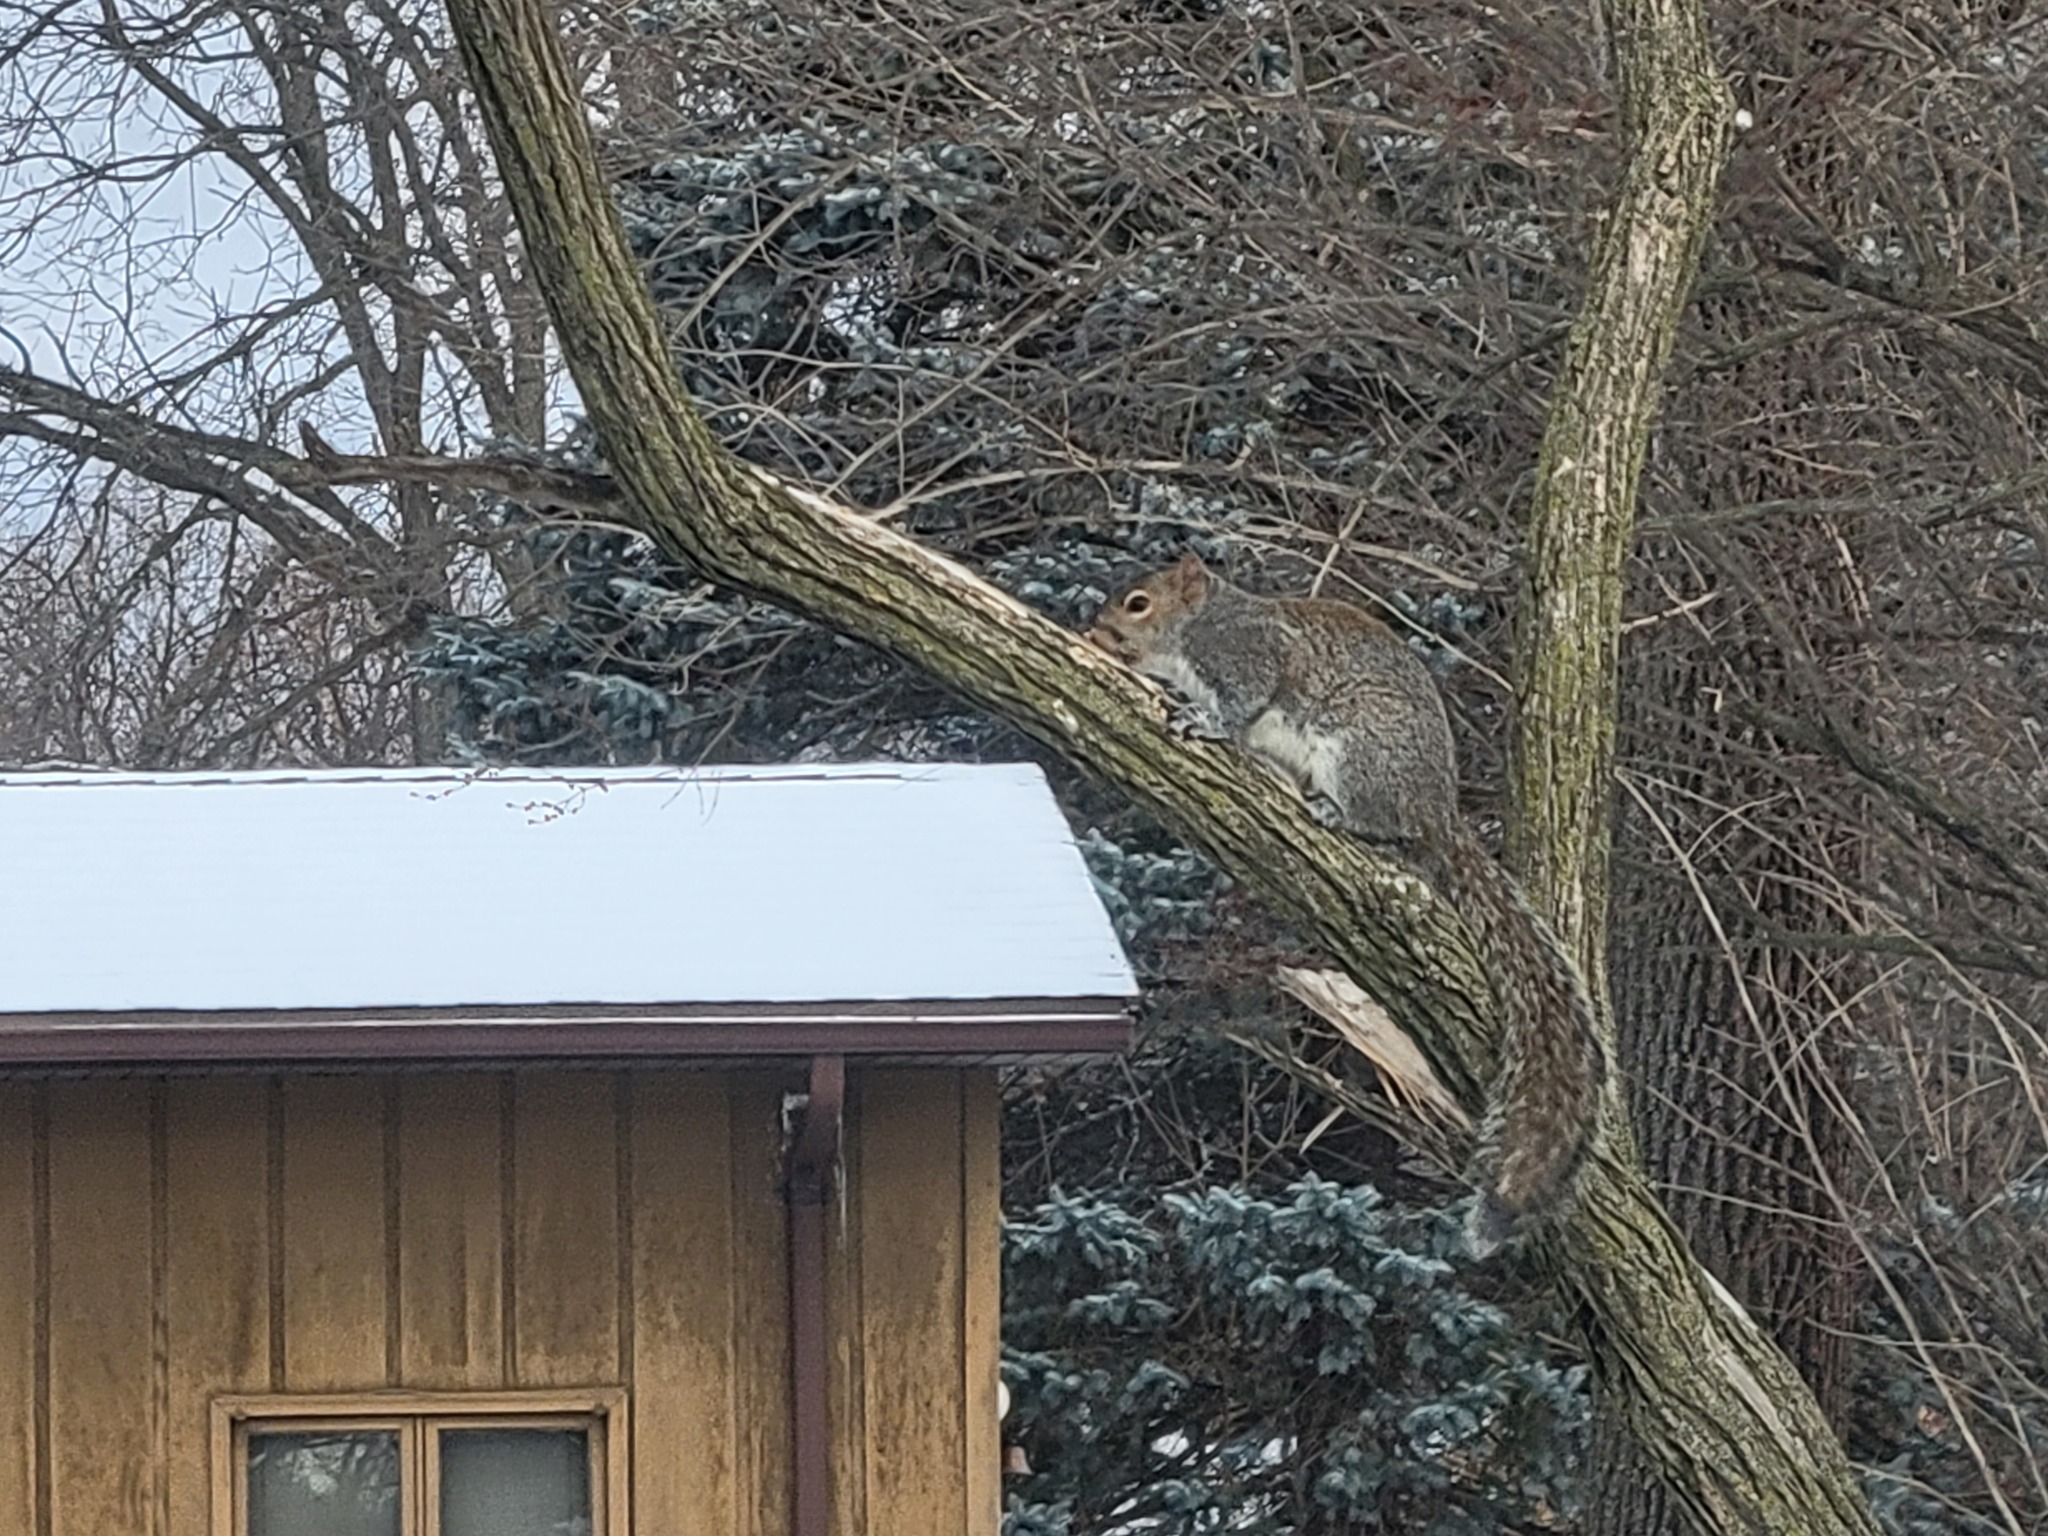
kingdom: Animalia
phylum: Chordata
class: Mammalia
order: Rodentia
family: Sciuridae
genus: Sciurus
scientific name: Sciurus carolinensis
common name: Eastern gray squirrel
